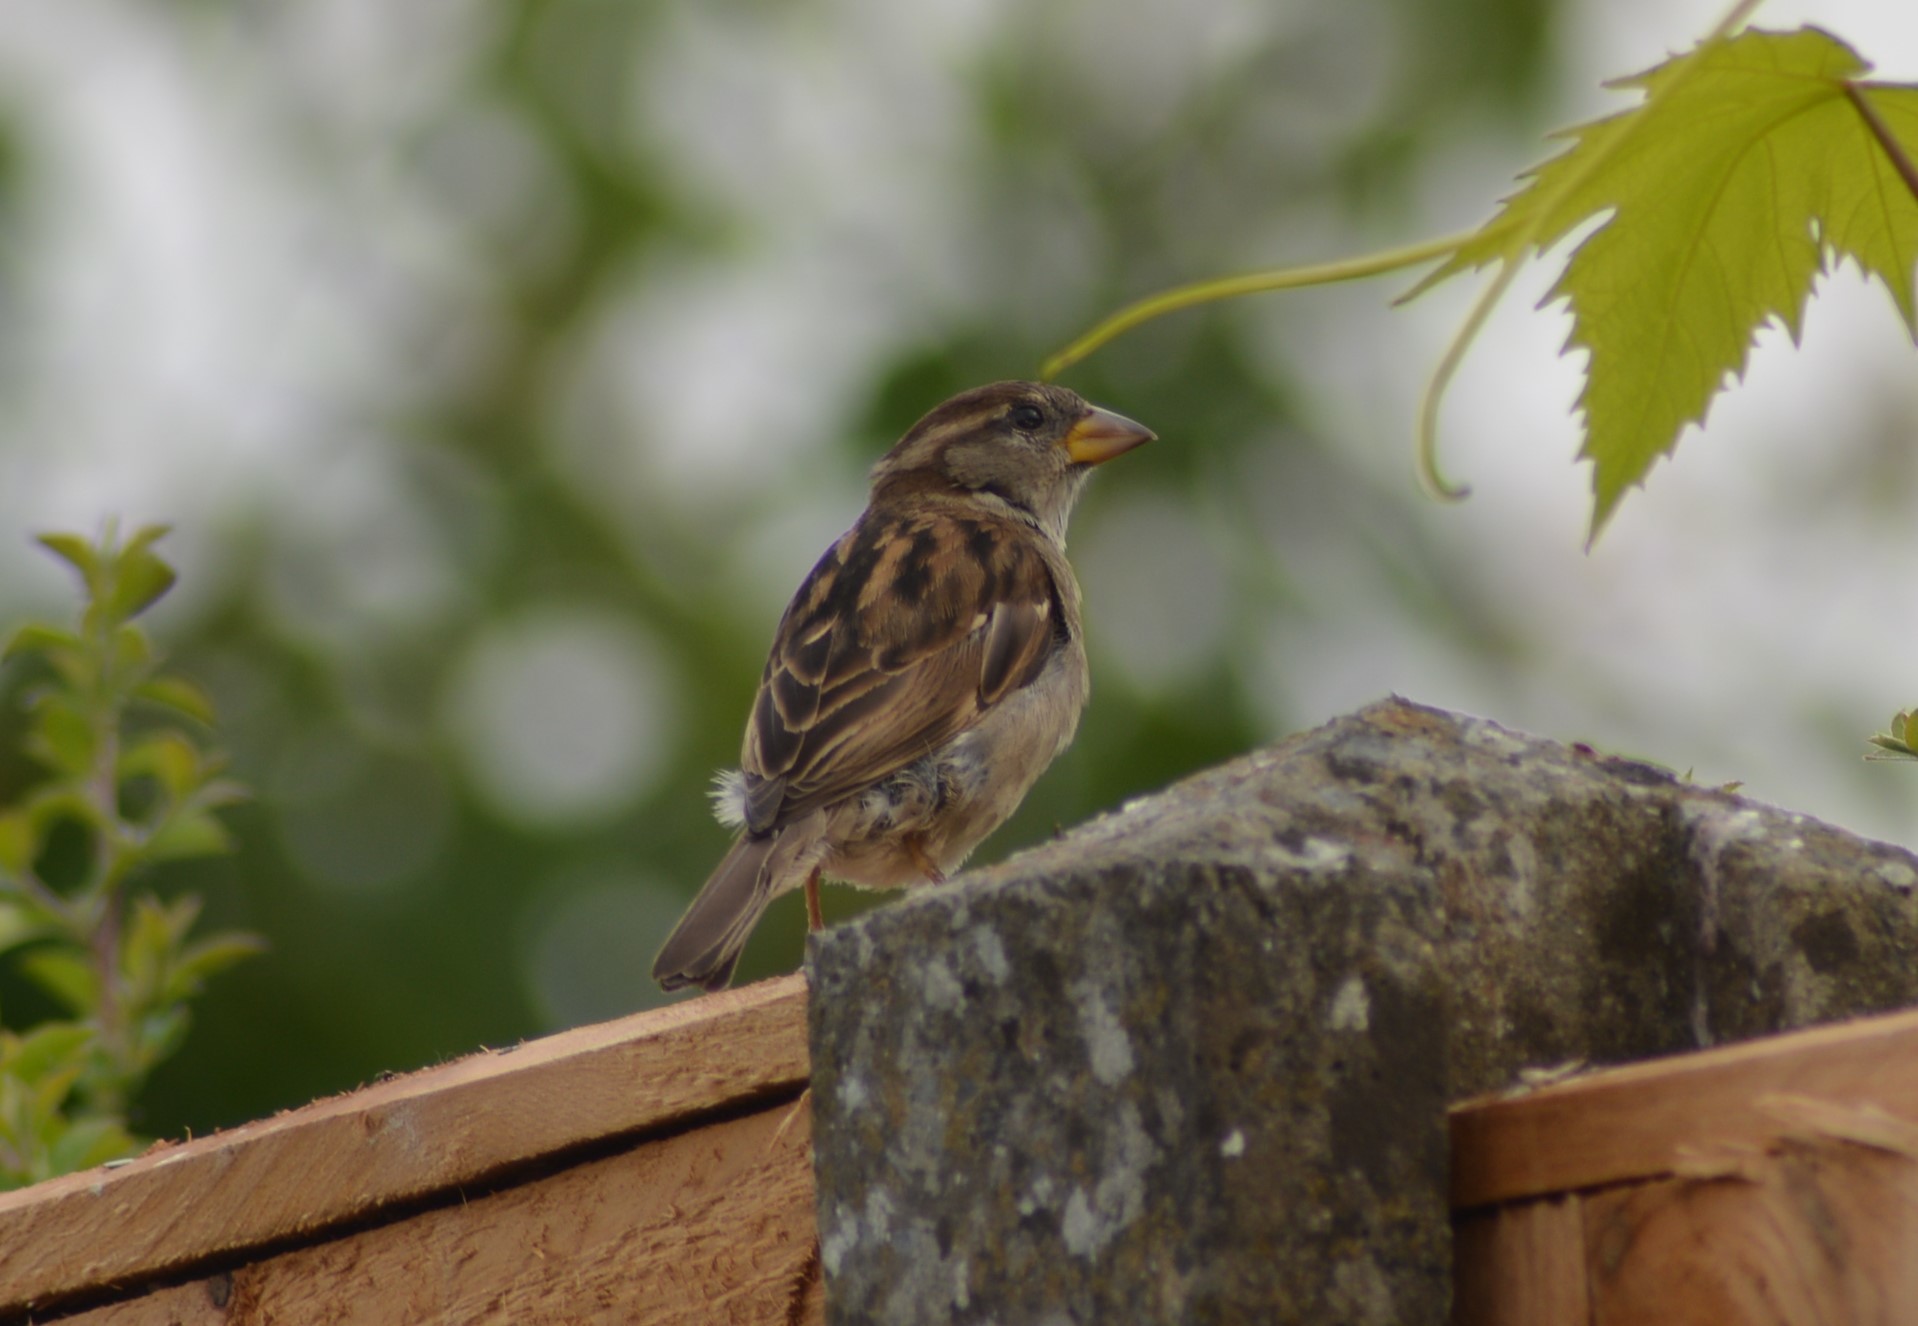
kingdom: Animalia
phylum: Chordata
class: Aves
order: Passeriformes
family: Passeridae
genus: Passer
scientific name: Passer domesticus
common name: House sparrow
